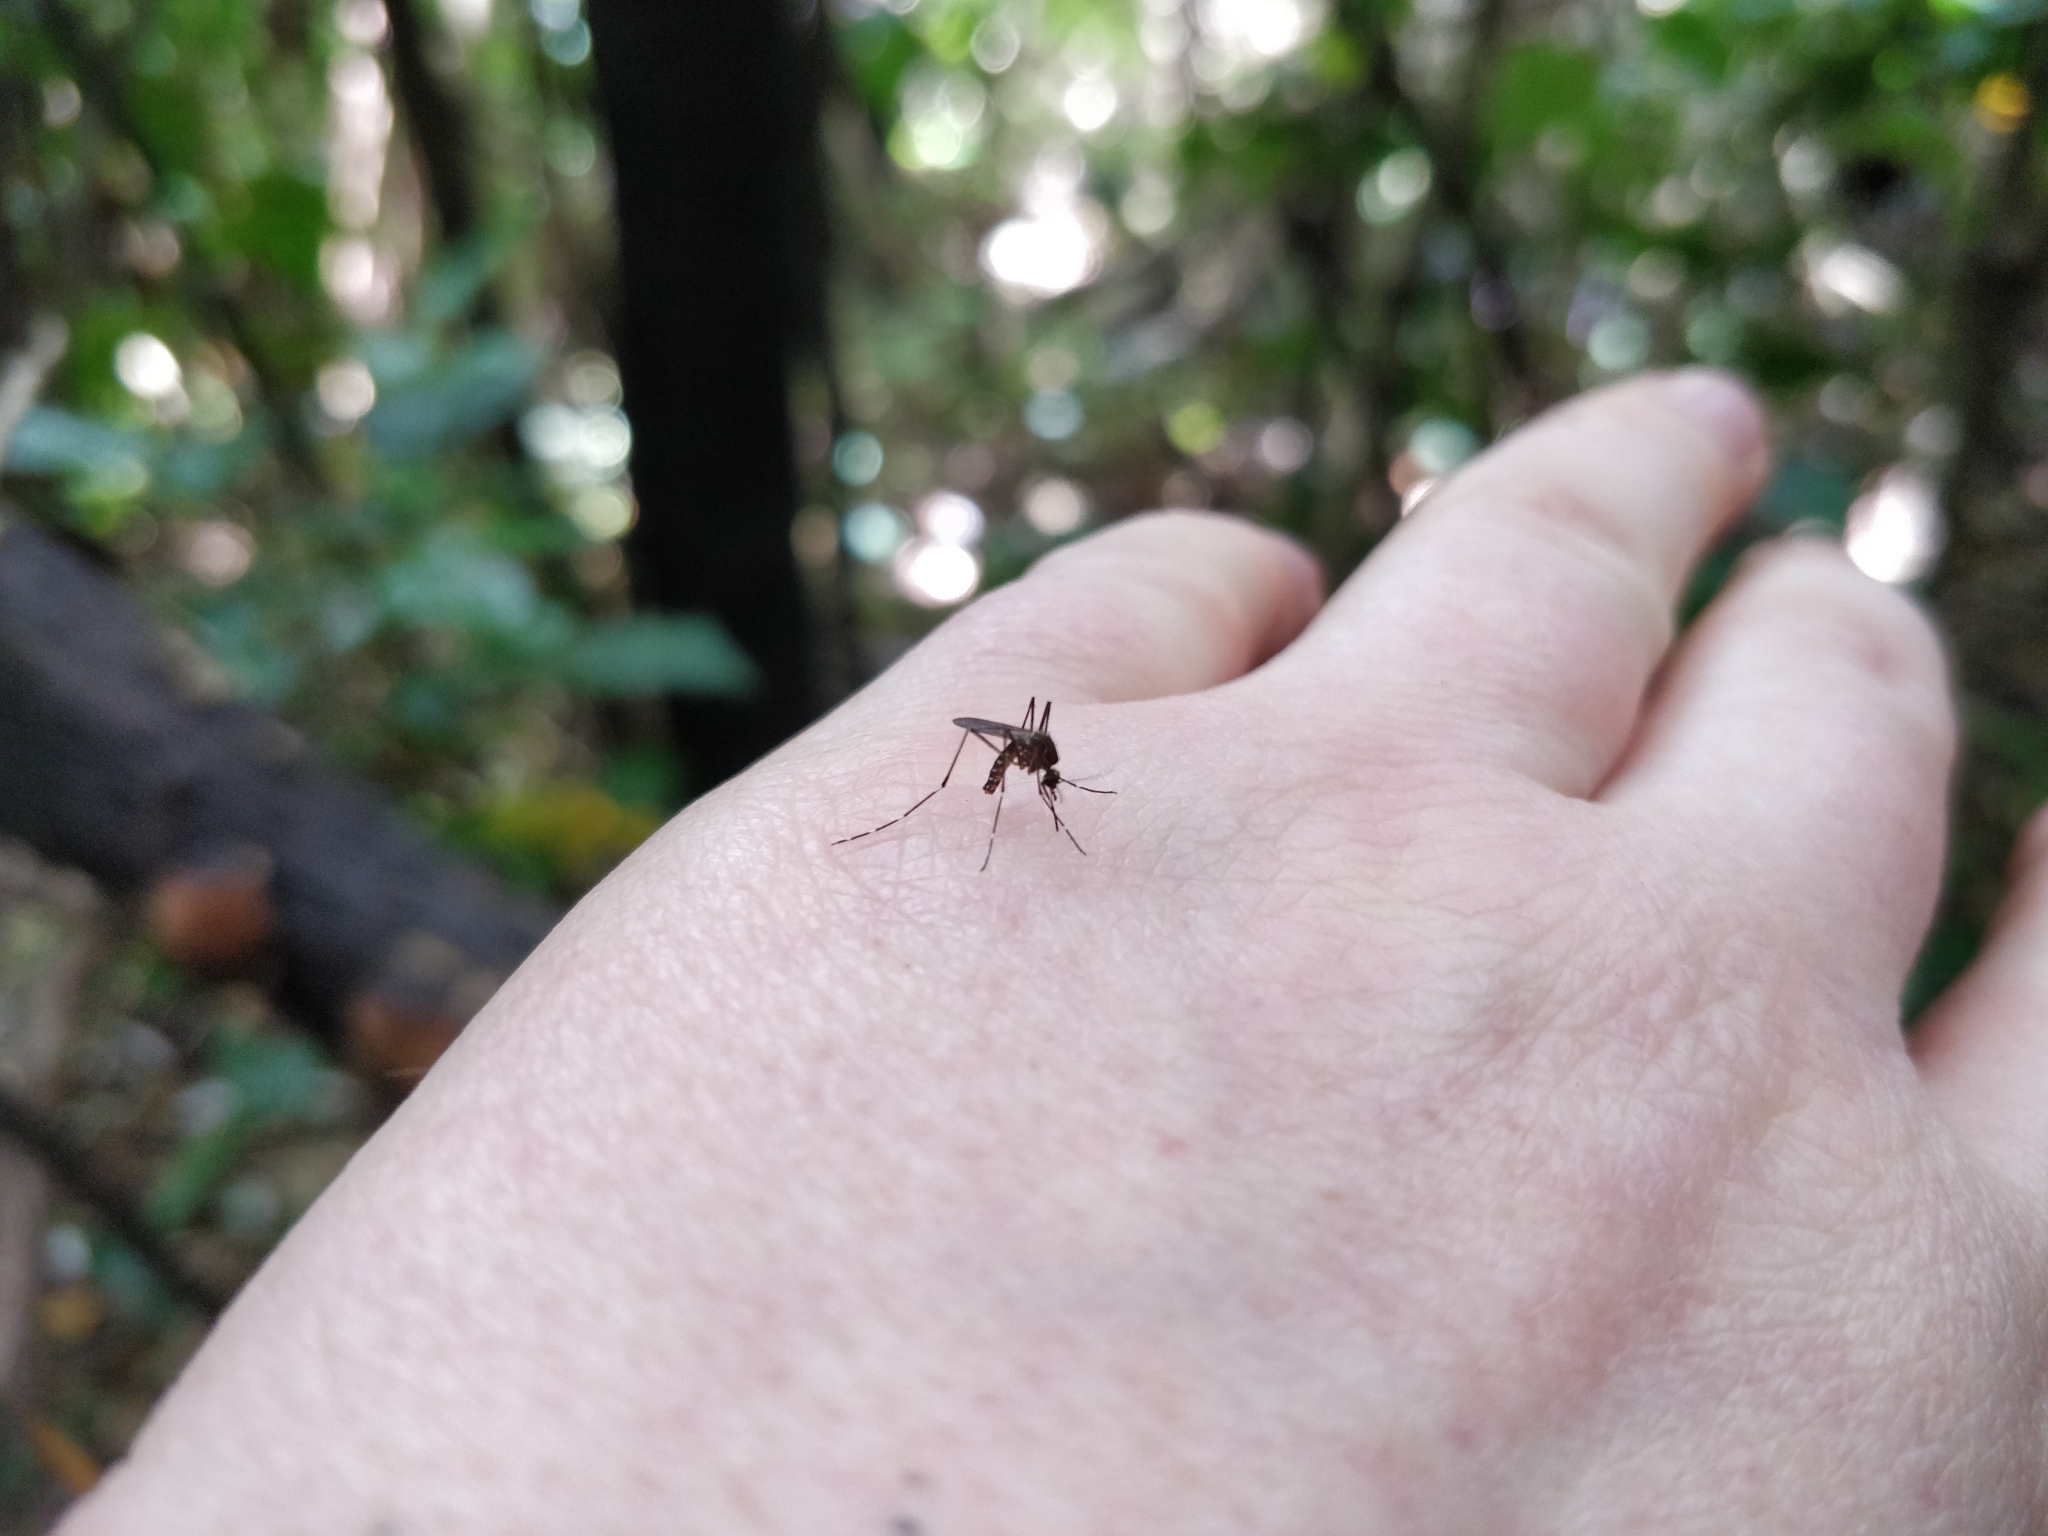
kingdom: Animalia
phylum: Arthropoda
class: Insecta
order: Diptera
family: Culicidae
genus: Aedes
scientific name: Aedes notoscriptus
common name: Australian backyard mosquito
